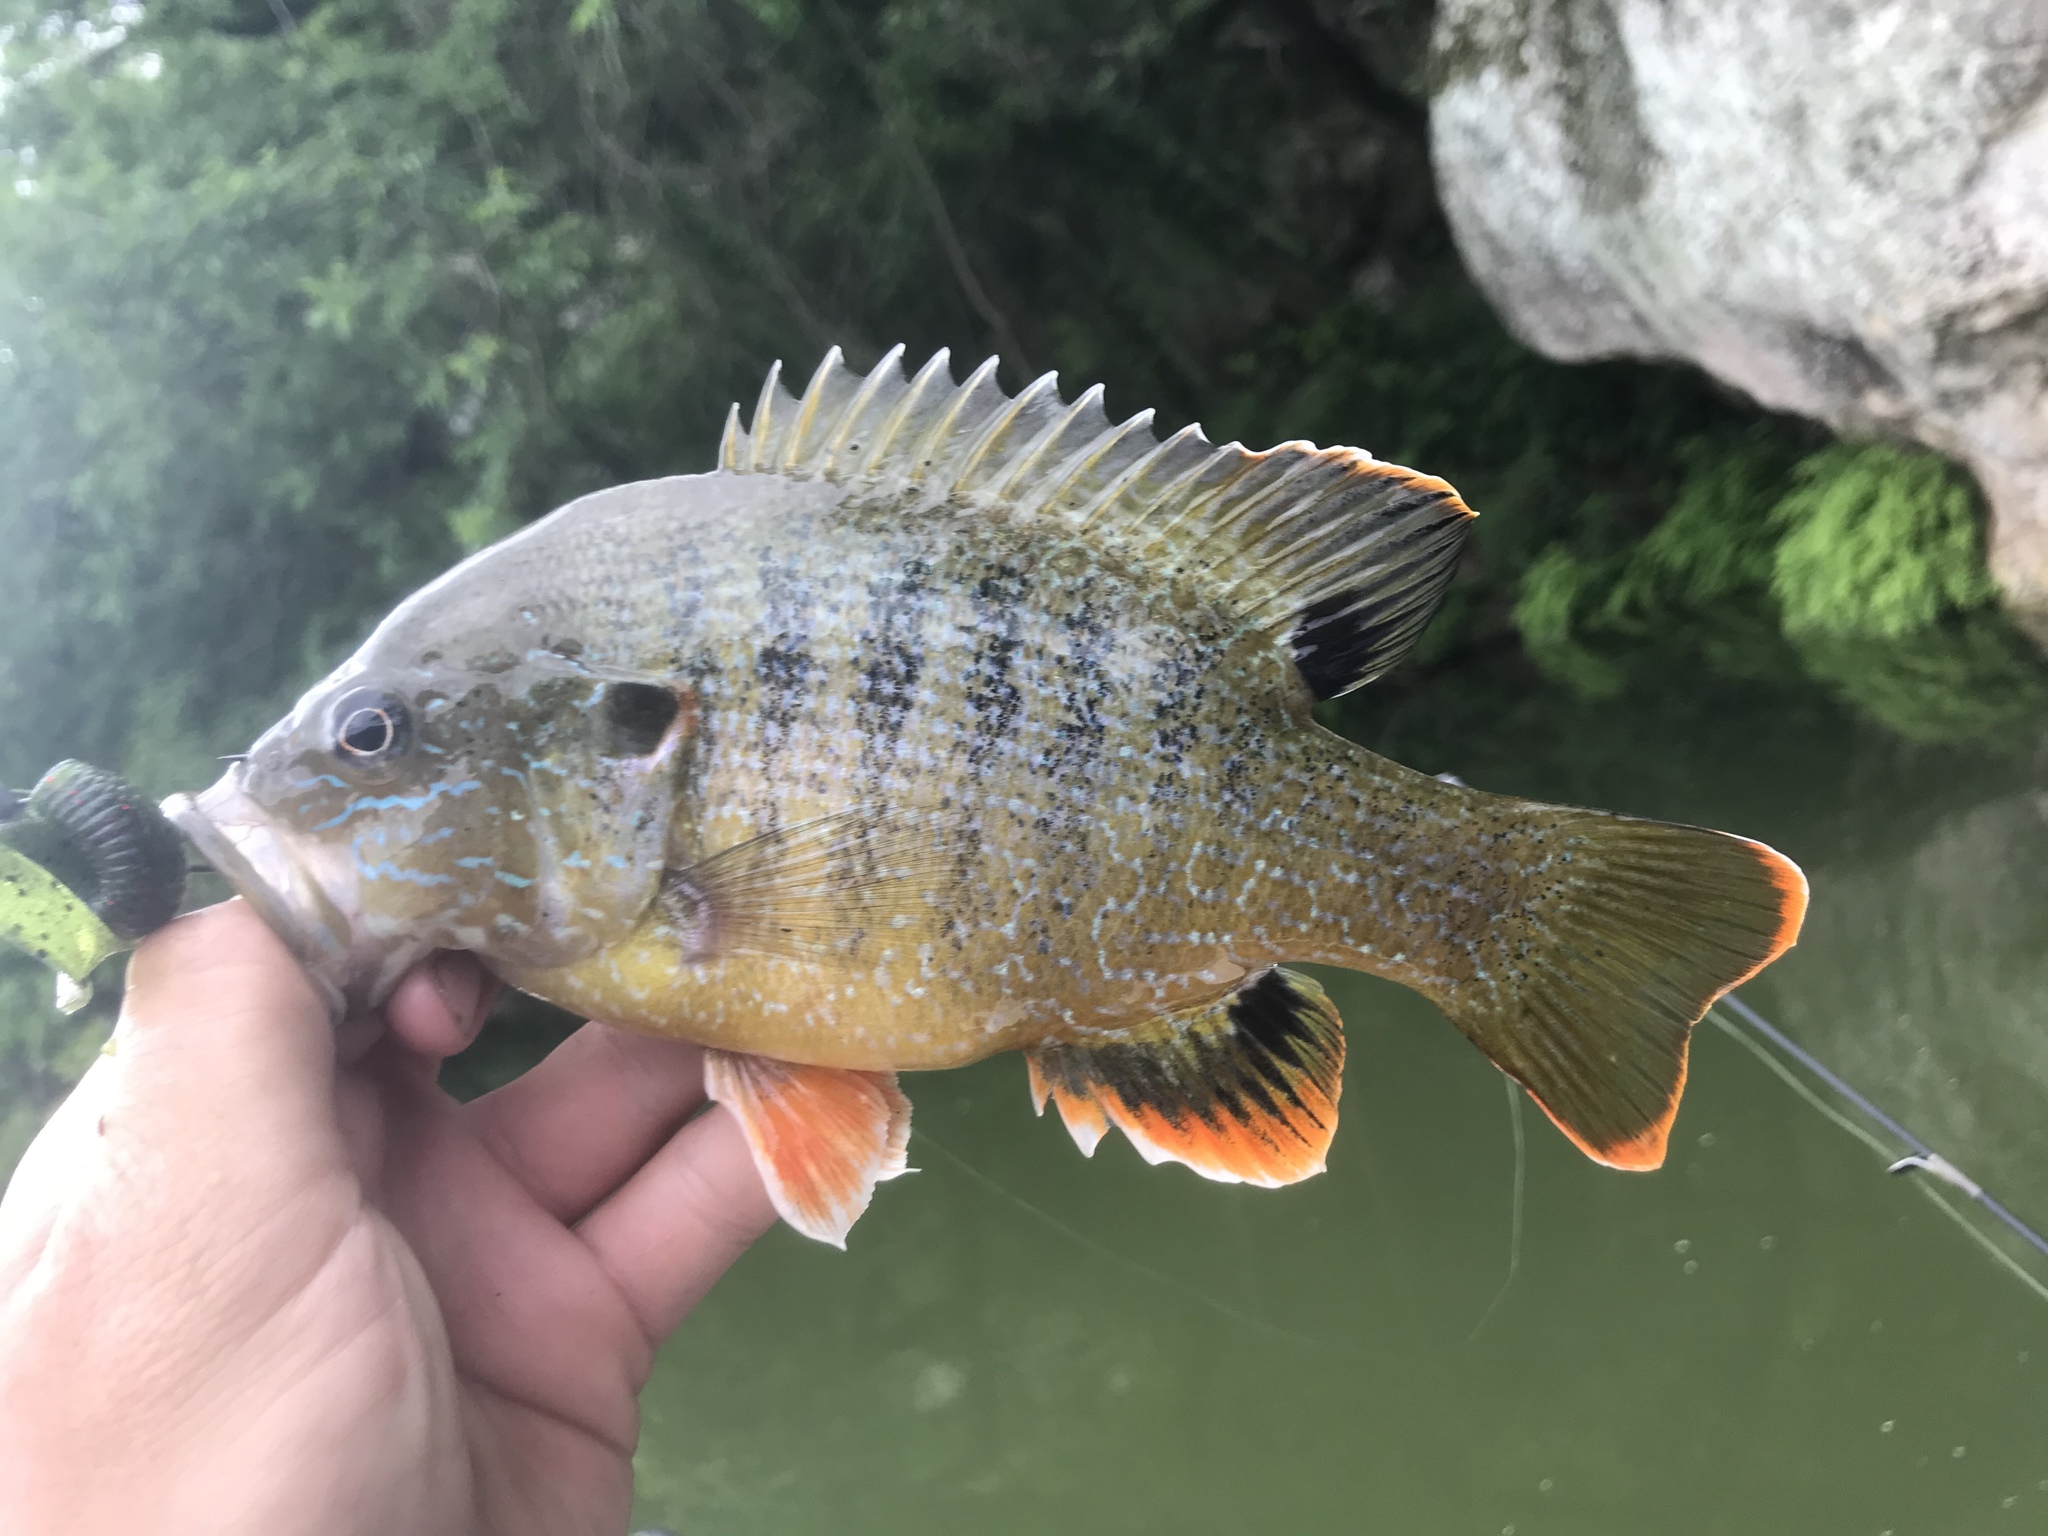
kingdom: Animalia
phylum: Chordata
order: Perciformes
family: Centrarchidae
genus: Lepomis
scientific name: Lepomis cyanellus
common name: Green sunfish
